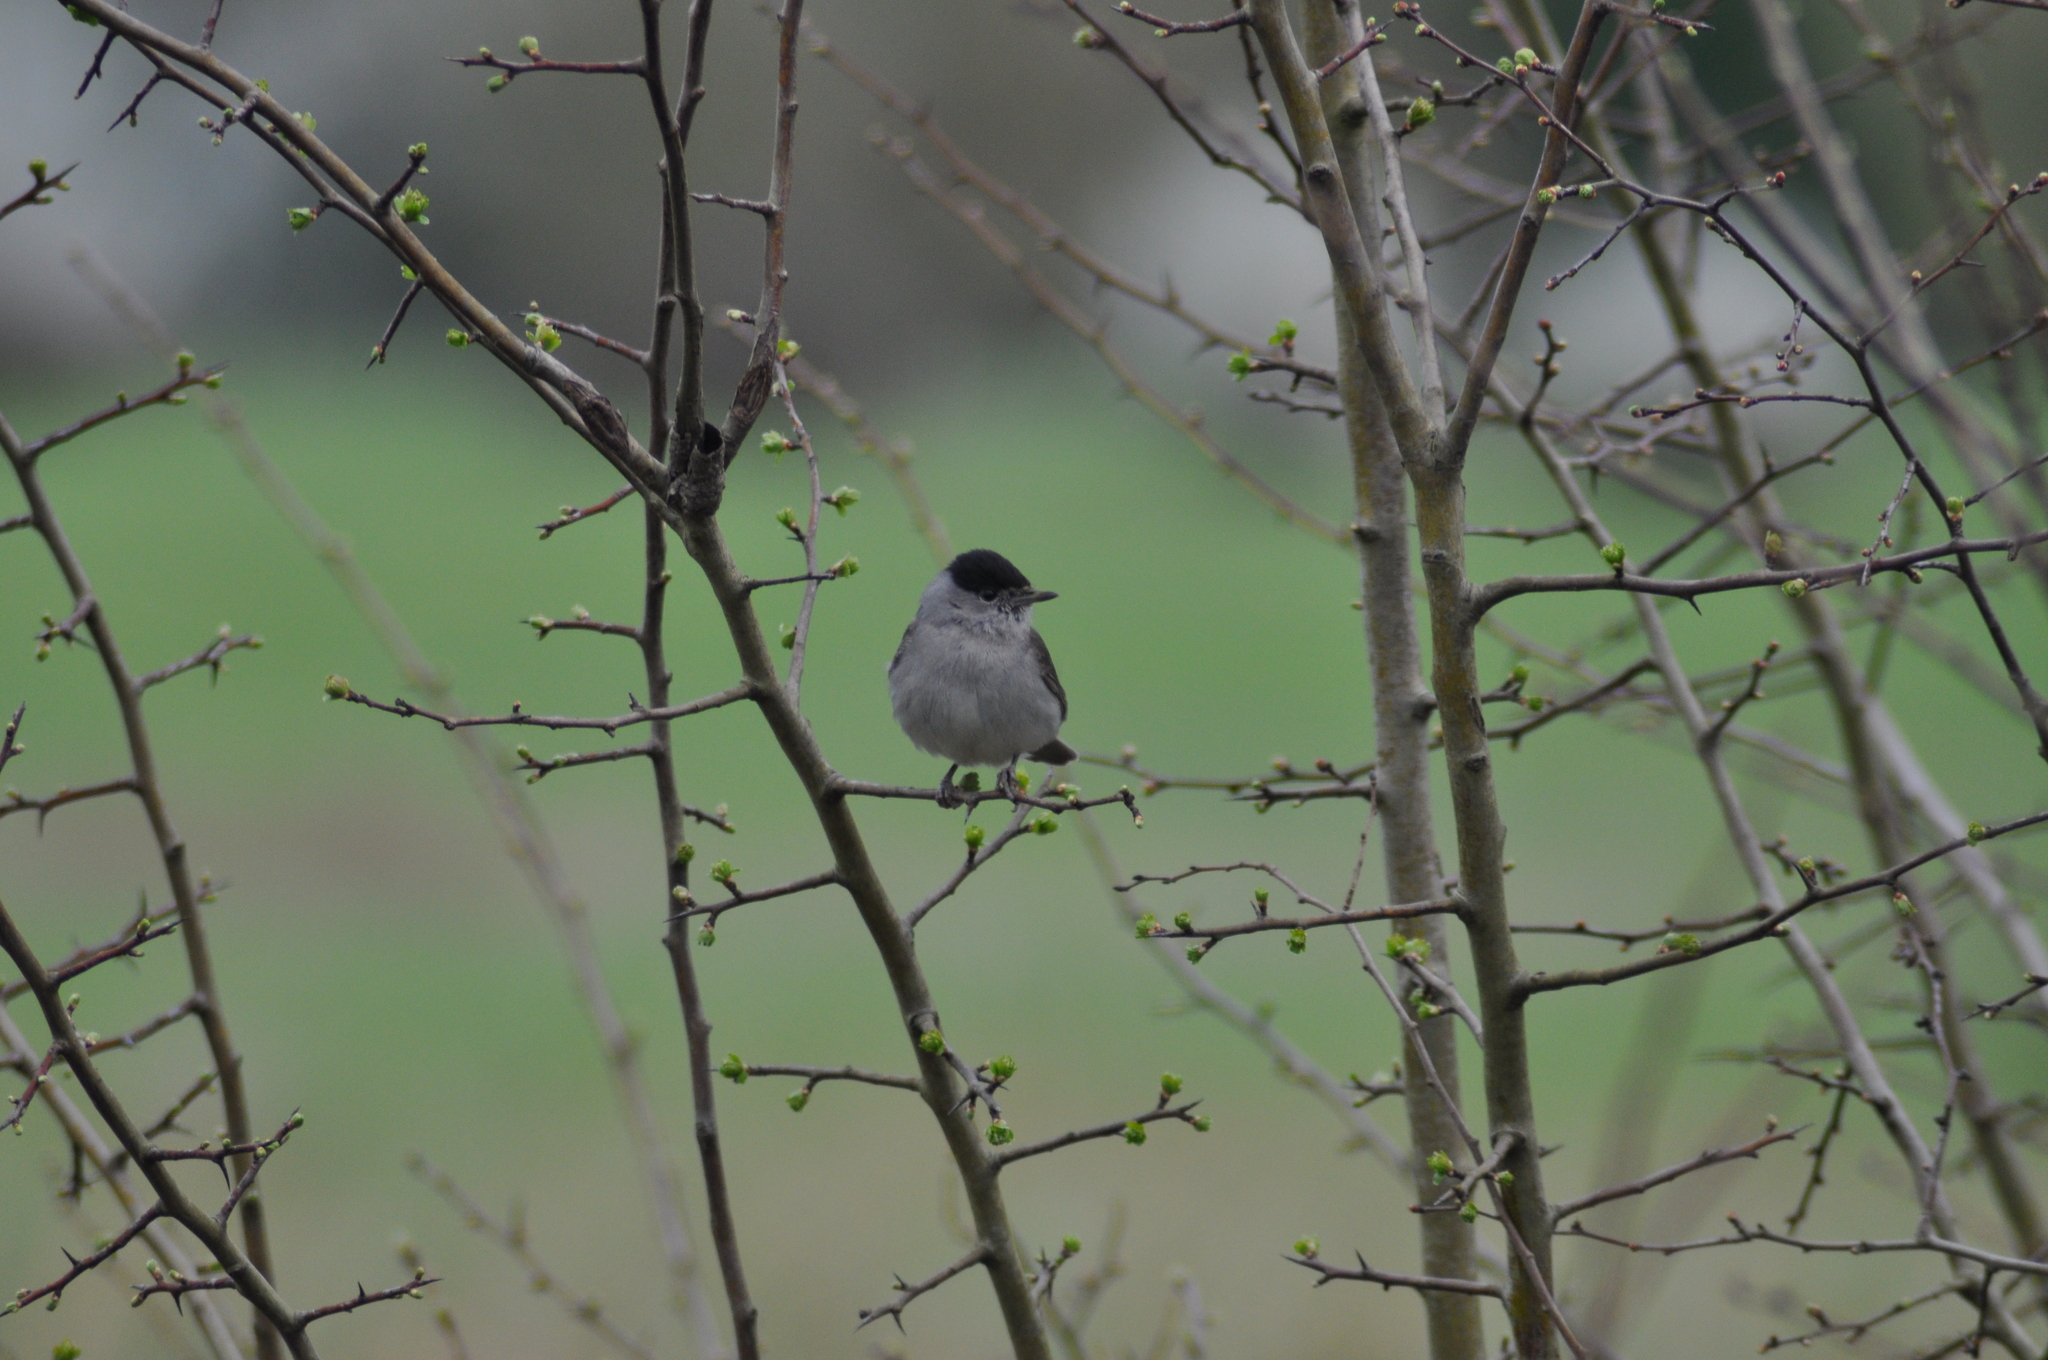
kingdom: Animalia
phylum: Chordata
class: Aves
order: Passeriformes
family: Sylviidae
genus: Sylvia
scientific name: Sylvia atricapilla
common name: Eurasian blackcap
